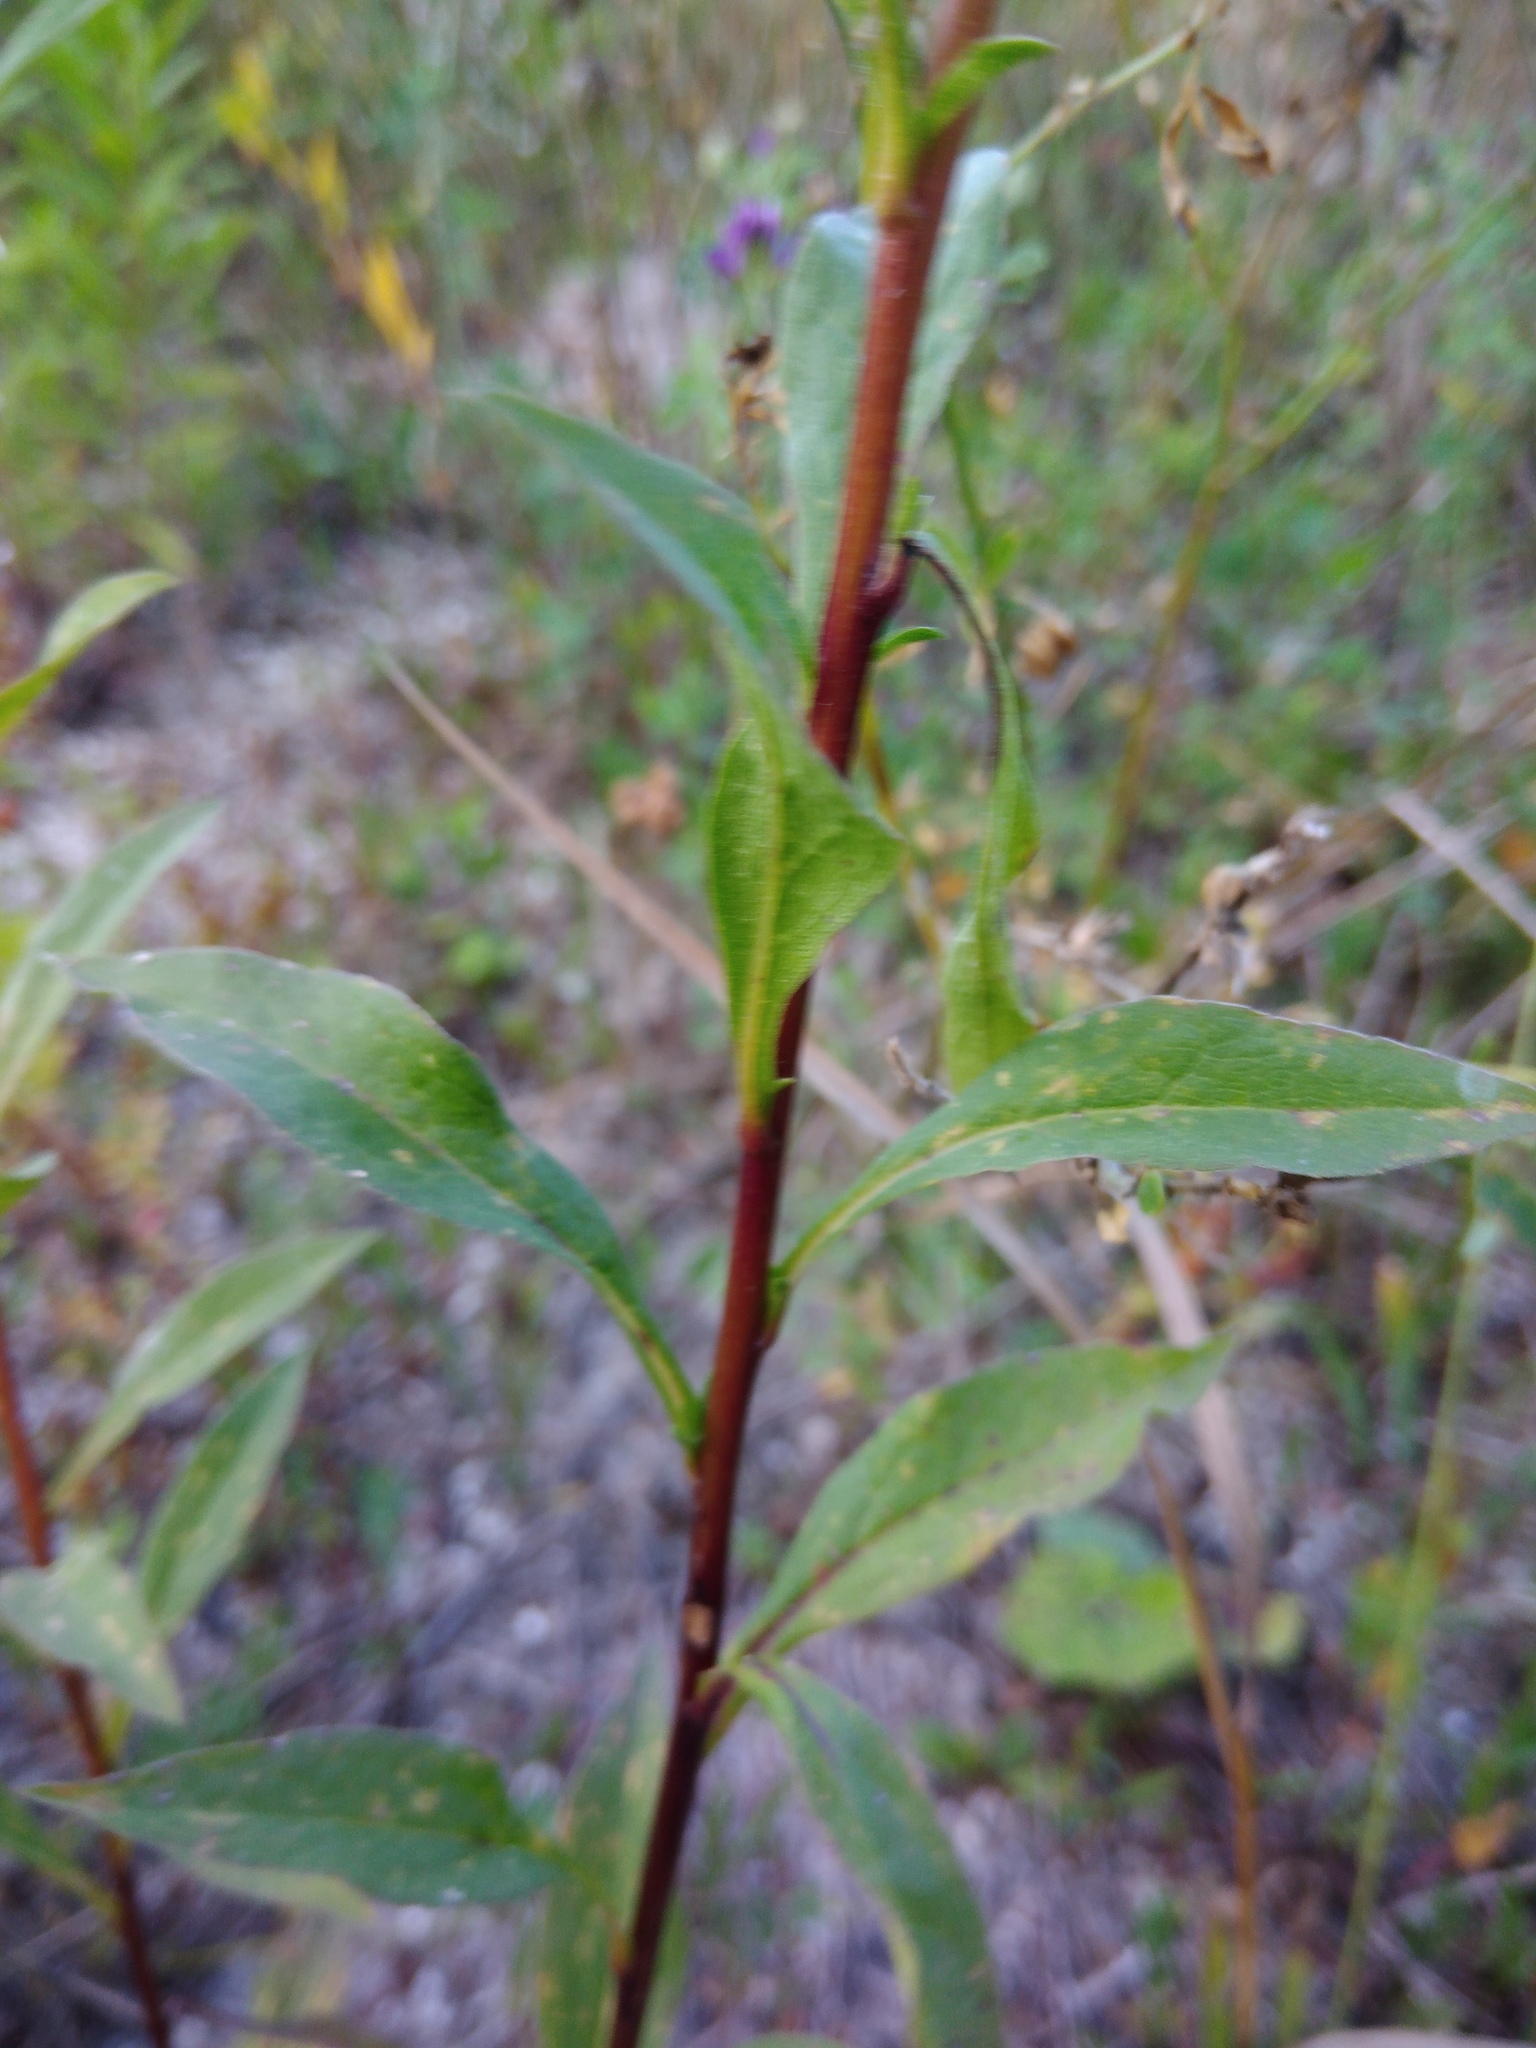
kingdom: Plantae
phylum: Tracheophyta
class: Magnoliopsida
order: Asterales
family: Asteraceae
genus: Solidago
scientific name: Solidago virgaurea
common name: Goldenrod
